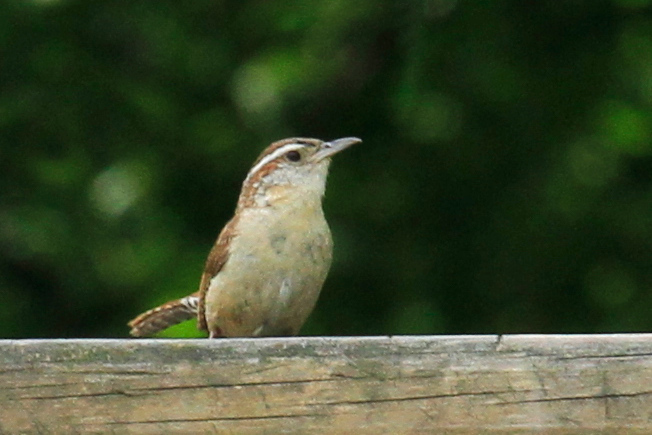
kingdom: Animalia
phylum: Chordata
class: Aves
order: Passeriformes
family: Troglodytidae
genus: Thryothorus
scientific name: Thryothorus ludovicianus
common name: Carolina wren
